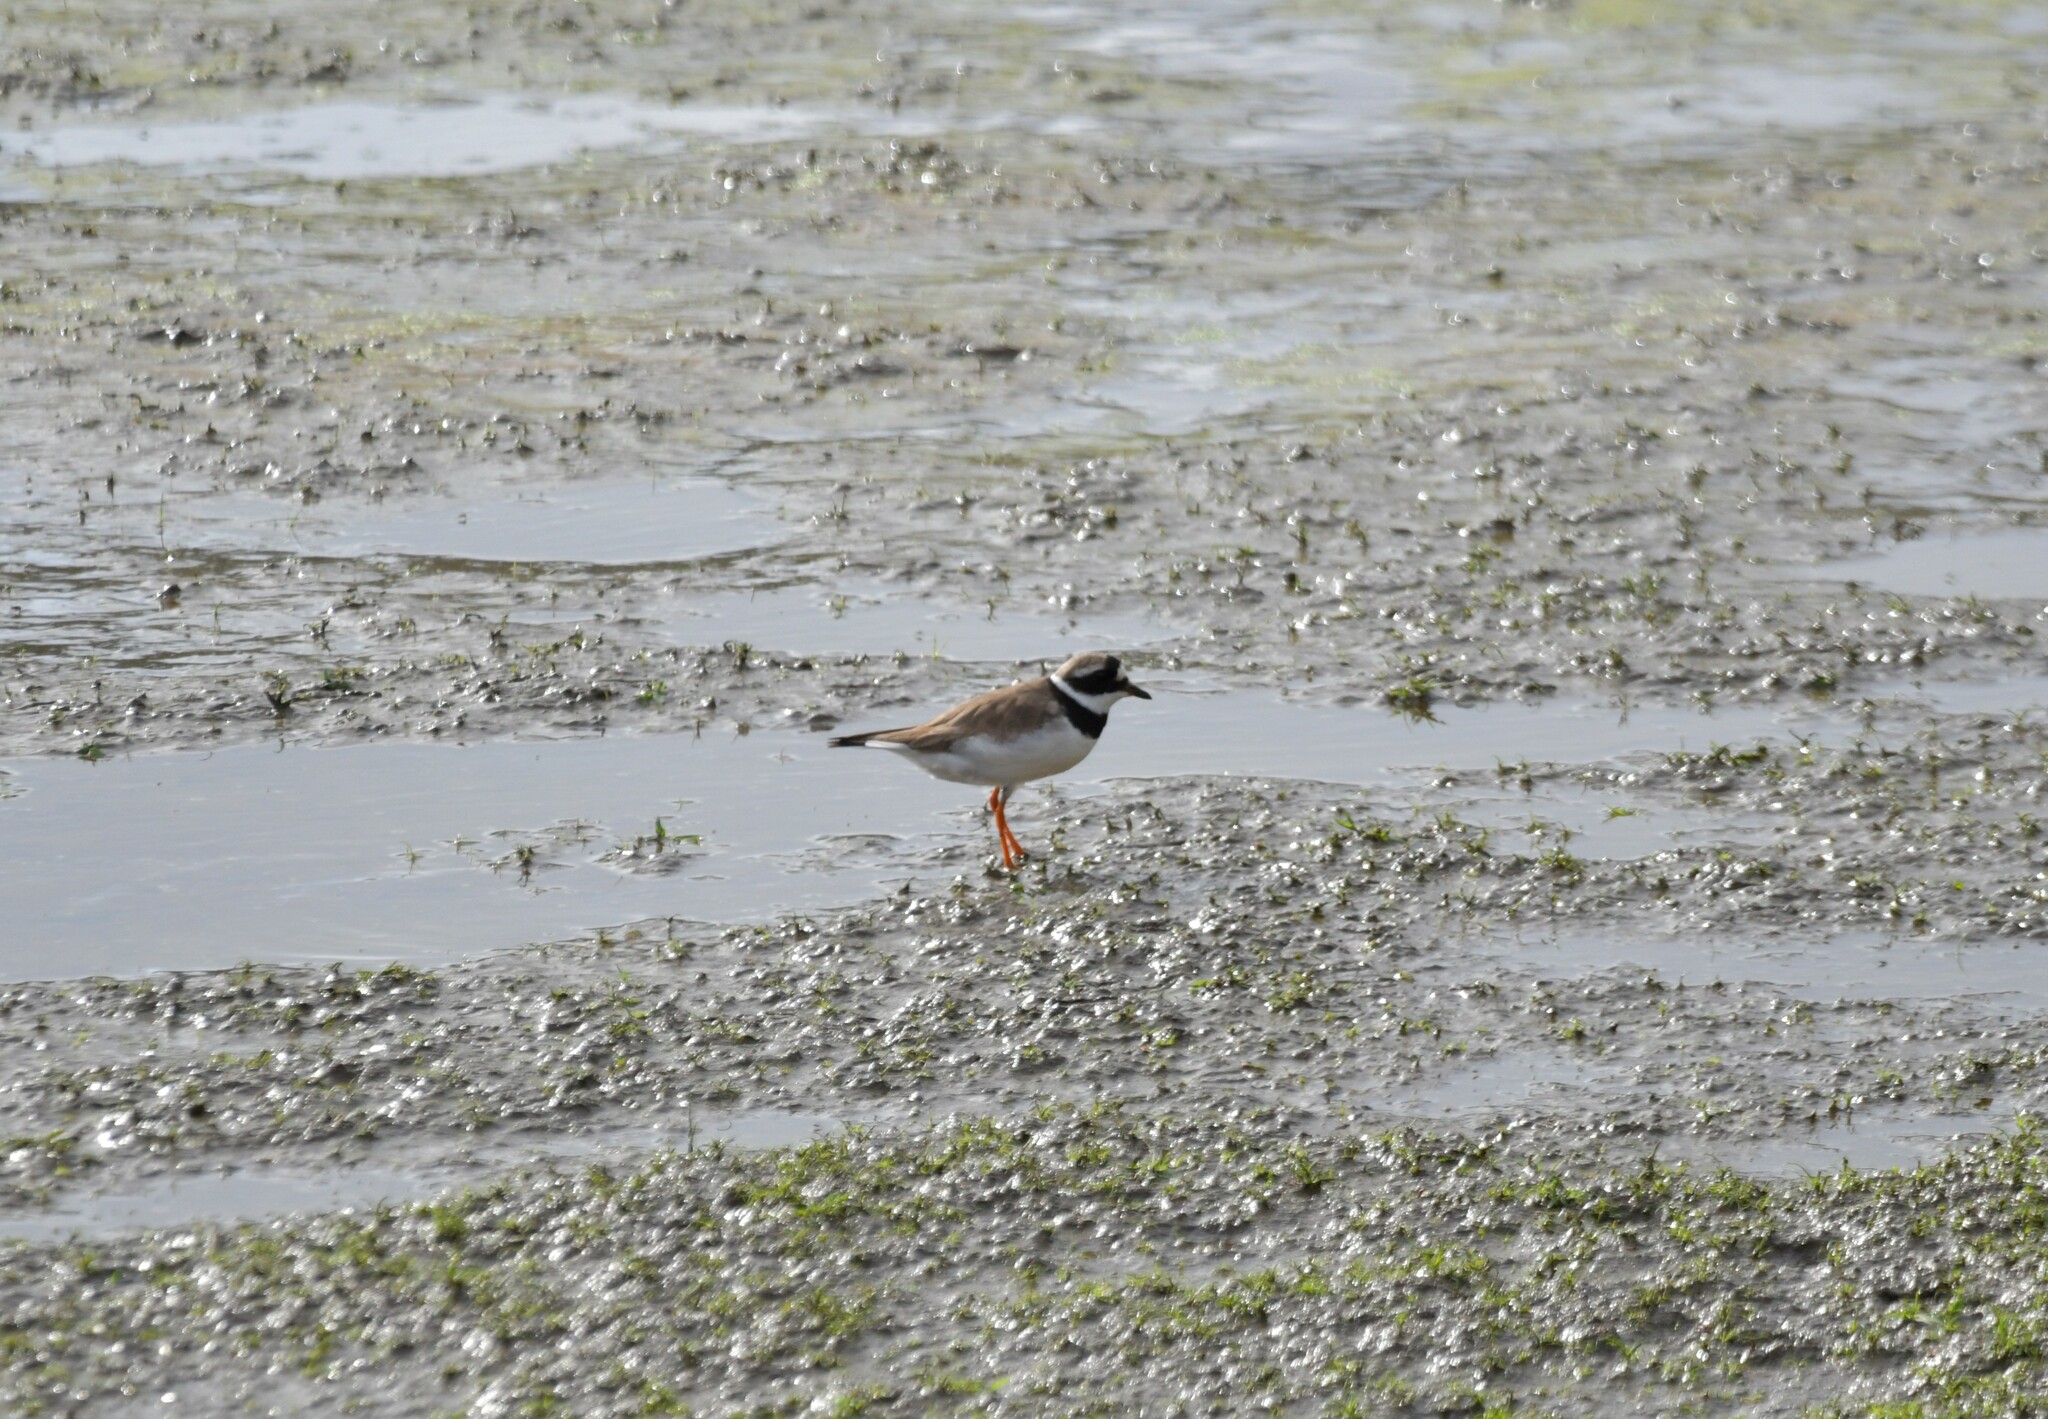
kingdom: Animalia
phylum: Chordata
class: Aves
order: Charadriiformes
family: Charadriidae
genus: Charadrius
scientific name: Charadrius hiaticula
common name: Common ringed plover
